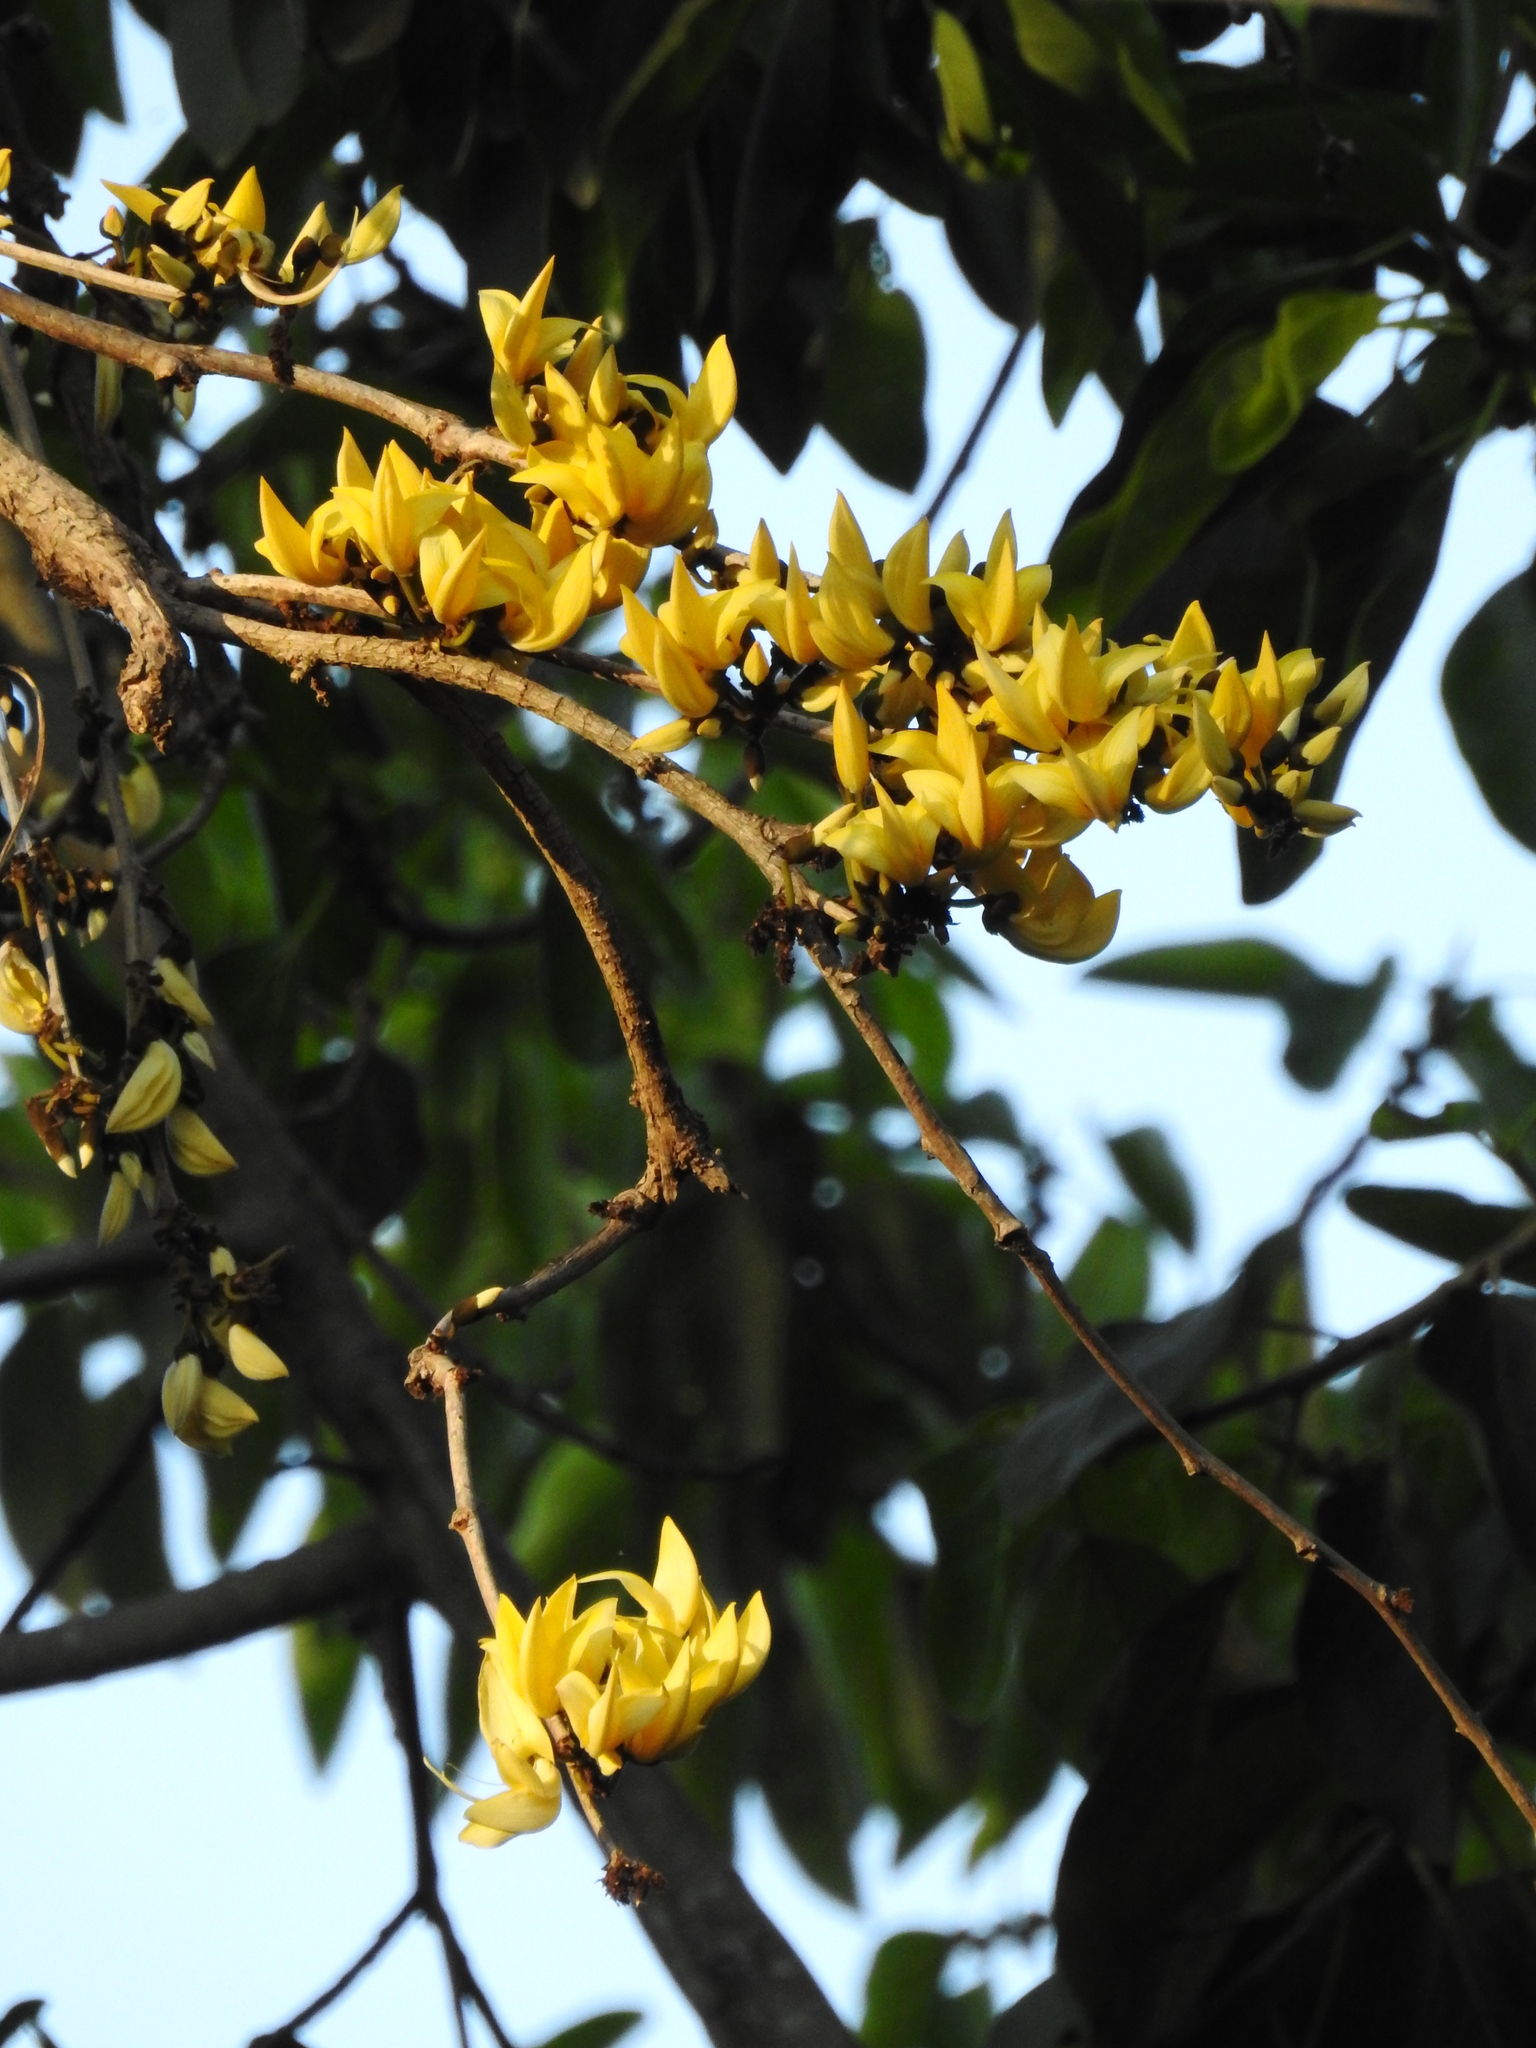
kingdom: Plantae
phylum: Tracheophyta
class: Magnoliopsida
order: Fabales
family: Fabaceae
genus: Butea
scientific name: Butea monosperma
